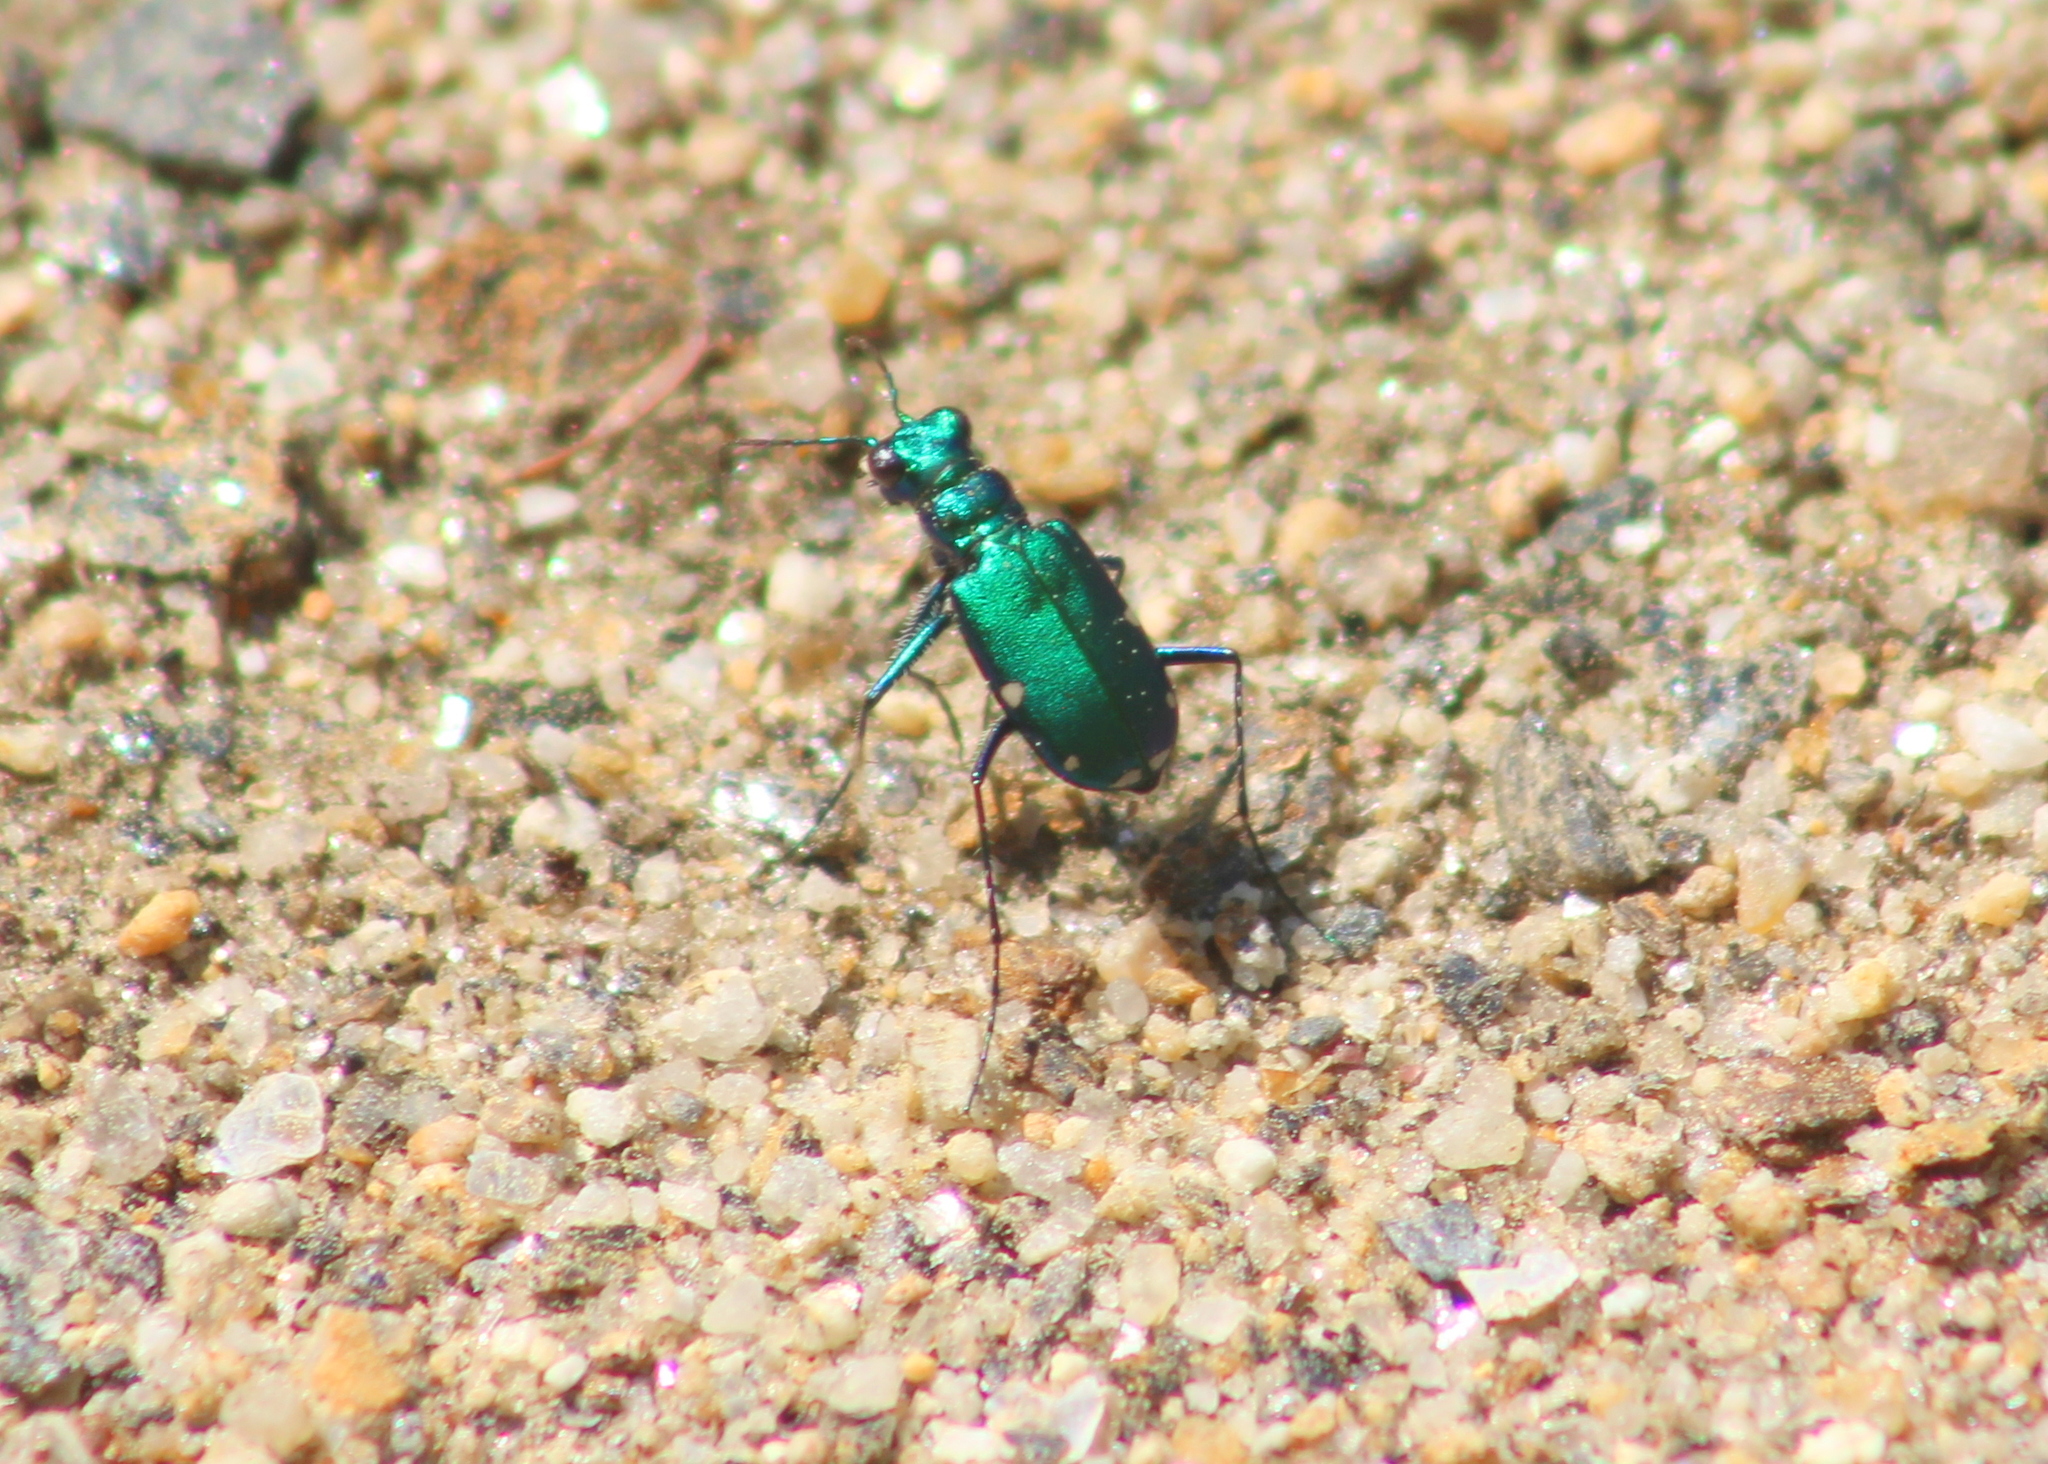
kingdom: Animalia
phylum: Arthropoda
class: Insecta
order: Coleoptera
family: Carabidae
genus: Cicindela
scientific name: Cicindela sexguttata
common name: Six-spotted tiger beetle
